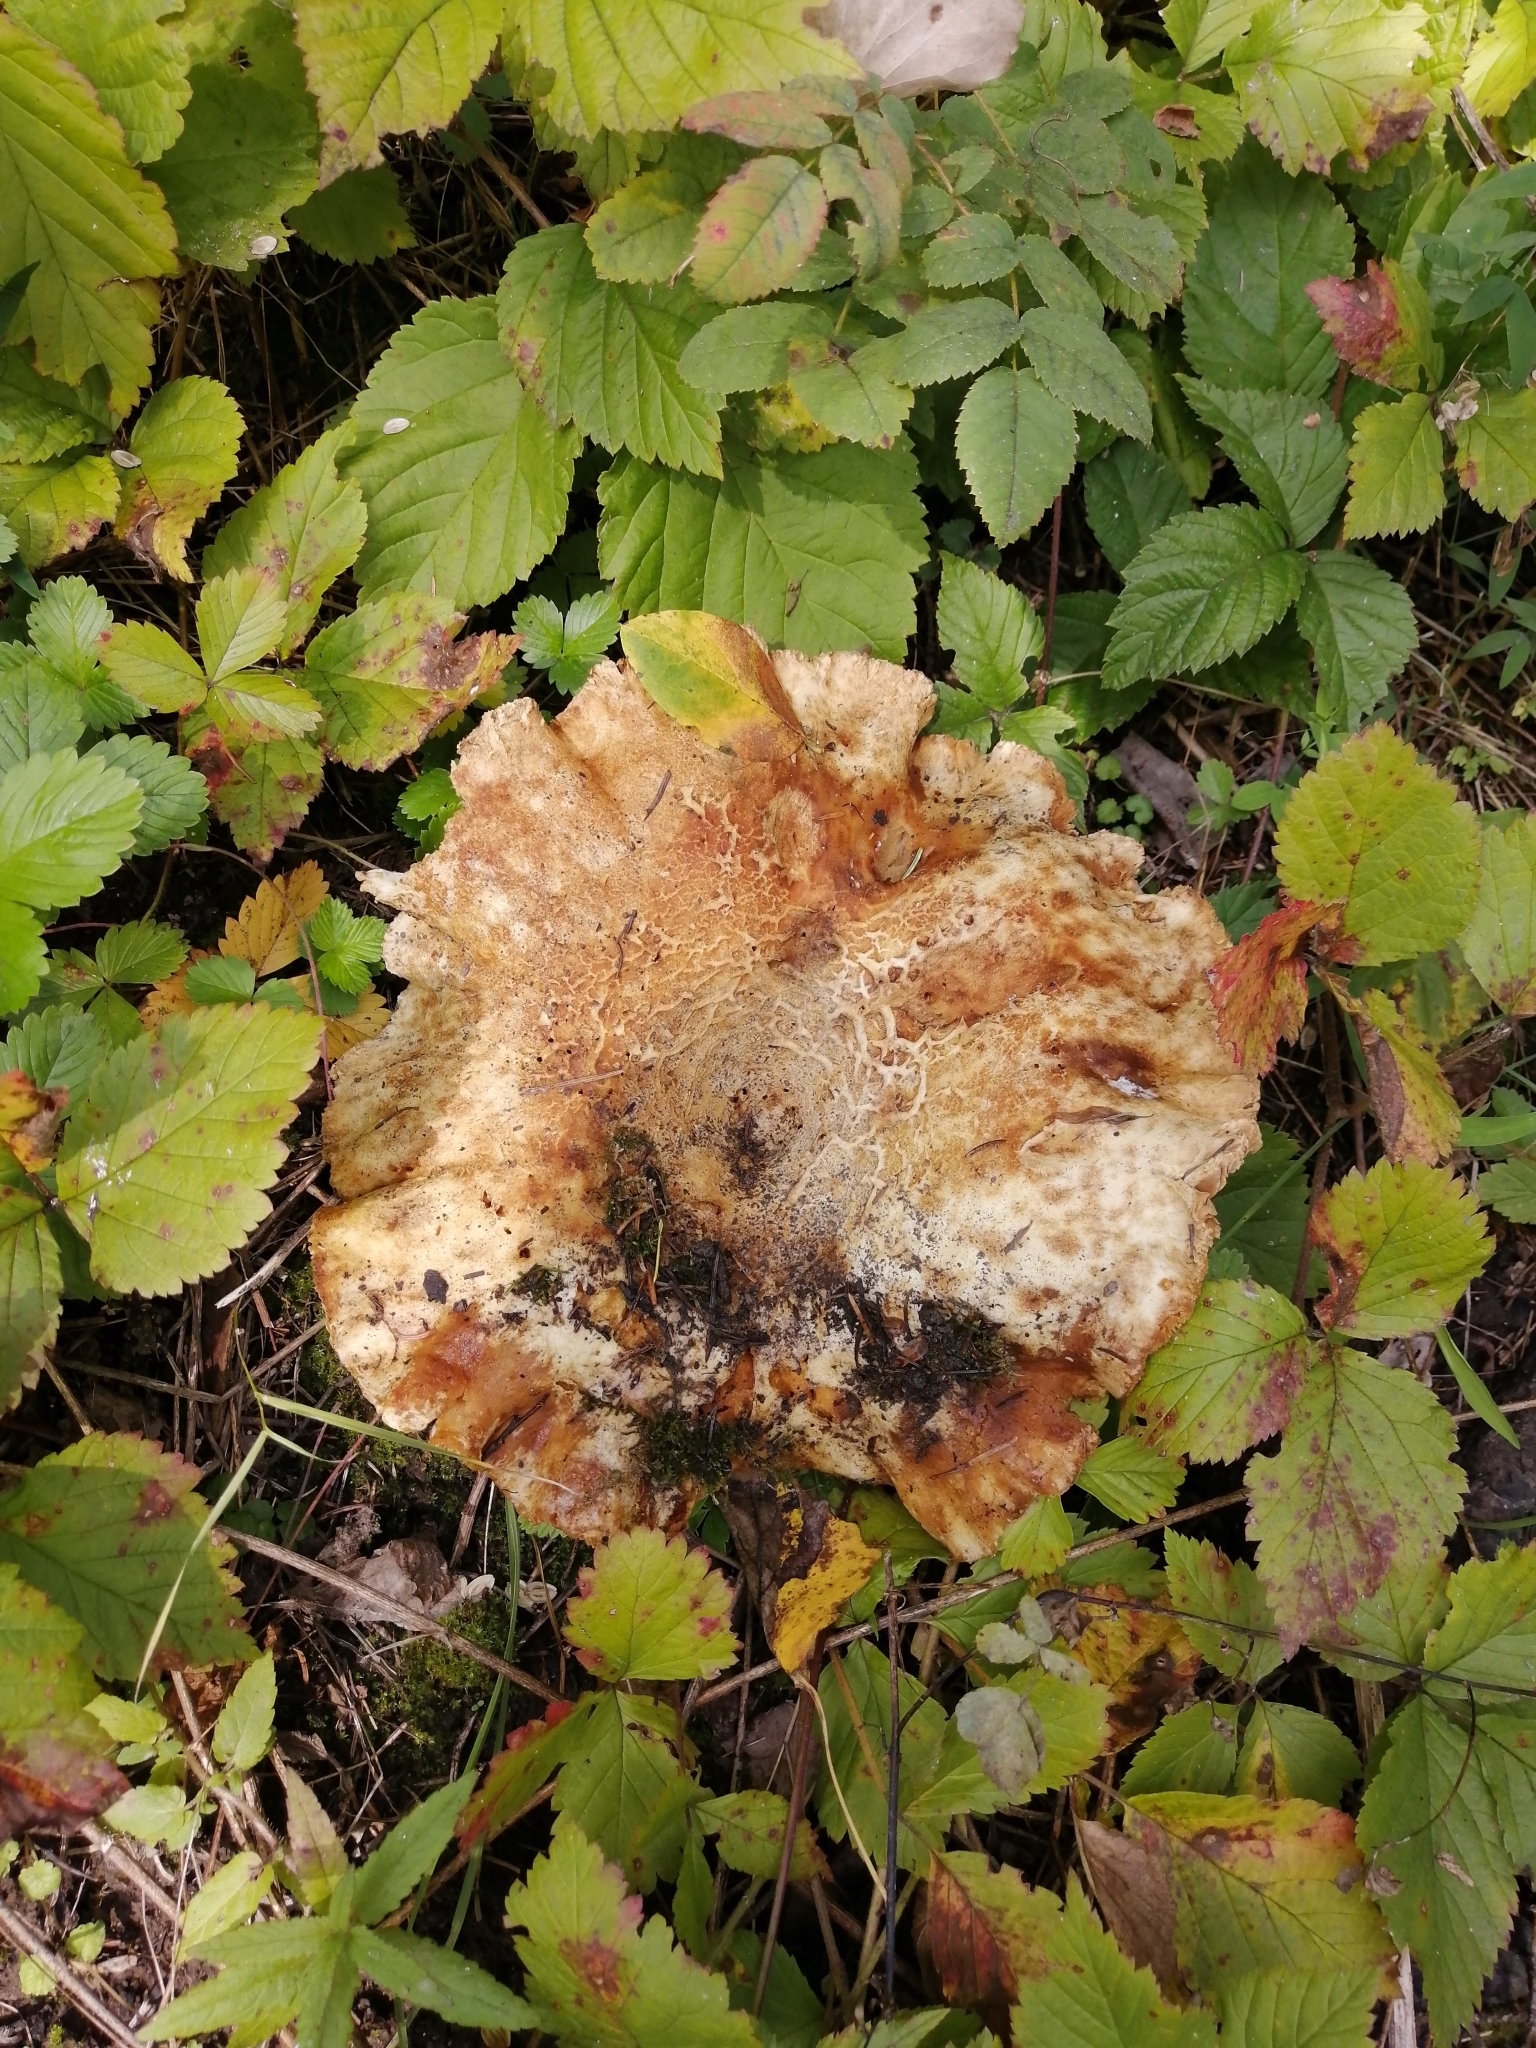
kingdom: Fungi
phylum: Basidiomycota
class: Agaricomycetes
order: Russulales
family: Russulaceae
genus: Russula
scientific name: Russula delica
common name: Milk white brittlegill
